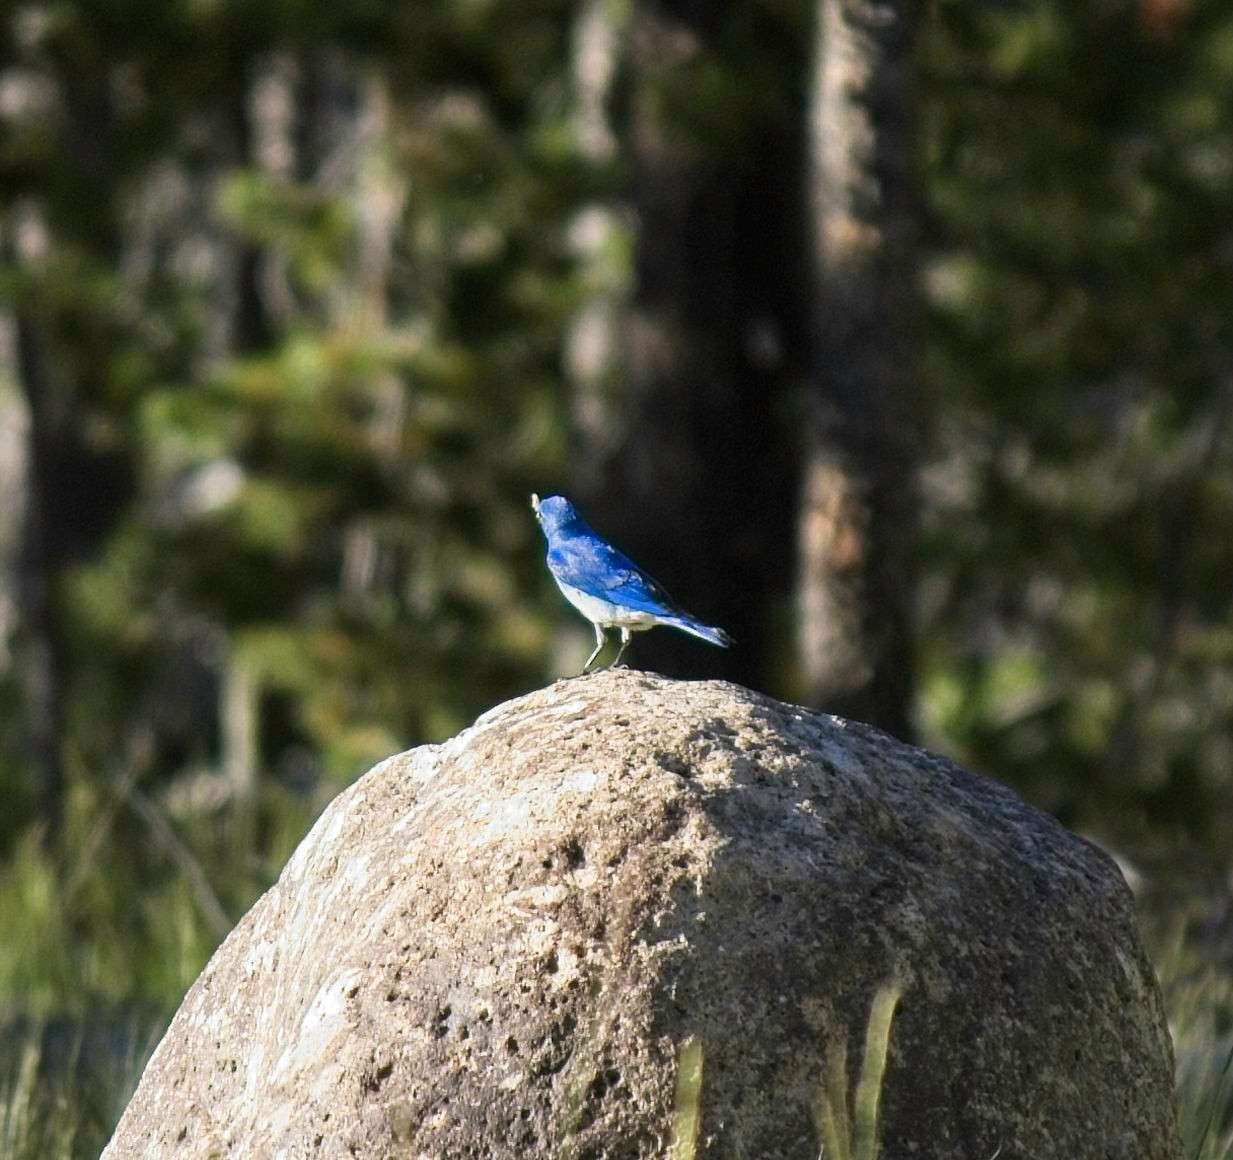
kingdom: Animalia
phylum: Chordata
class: Aves
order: Passeriformes
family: Turdidae
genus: Sialia
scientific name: Sialia currucoides
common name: Mountain bluebird
